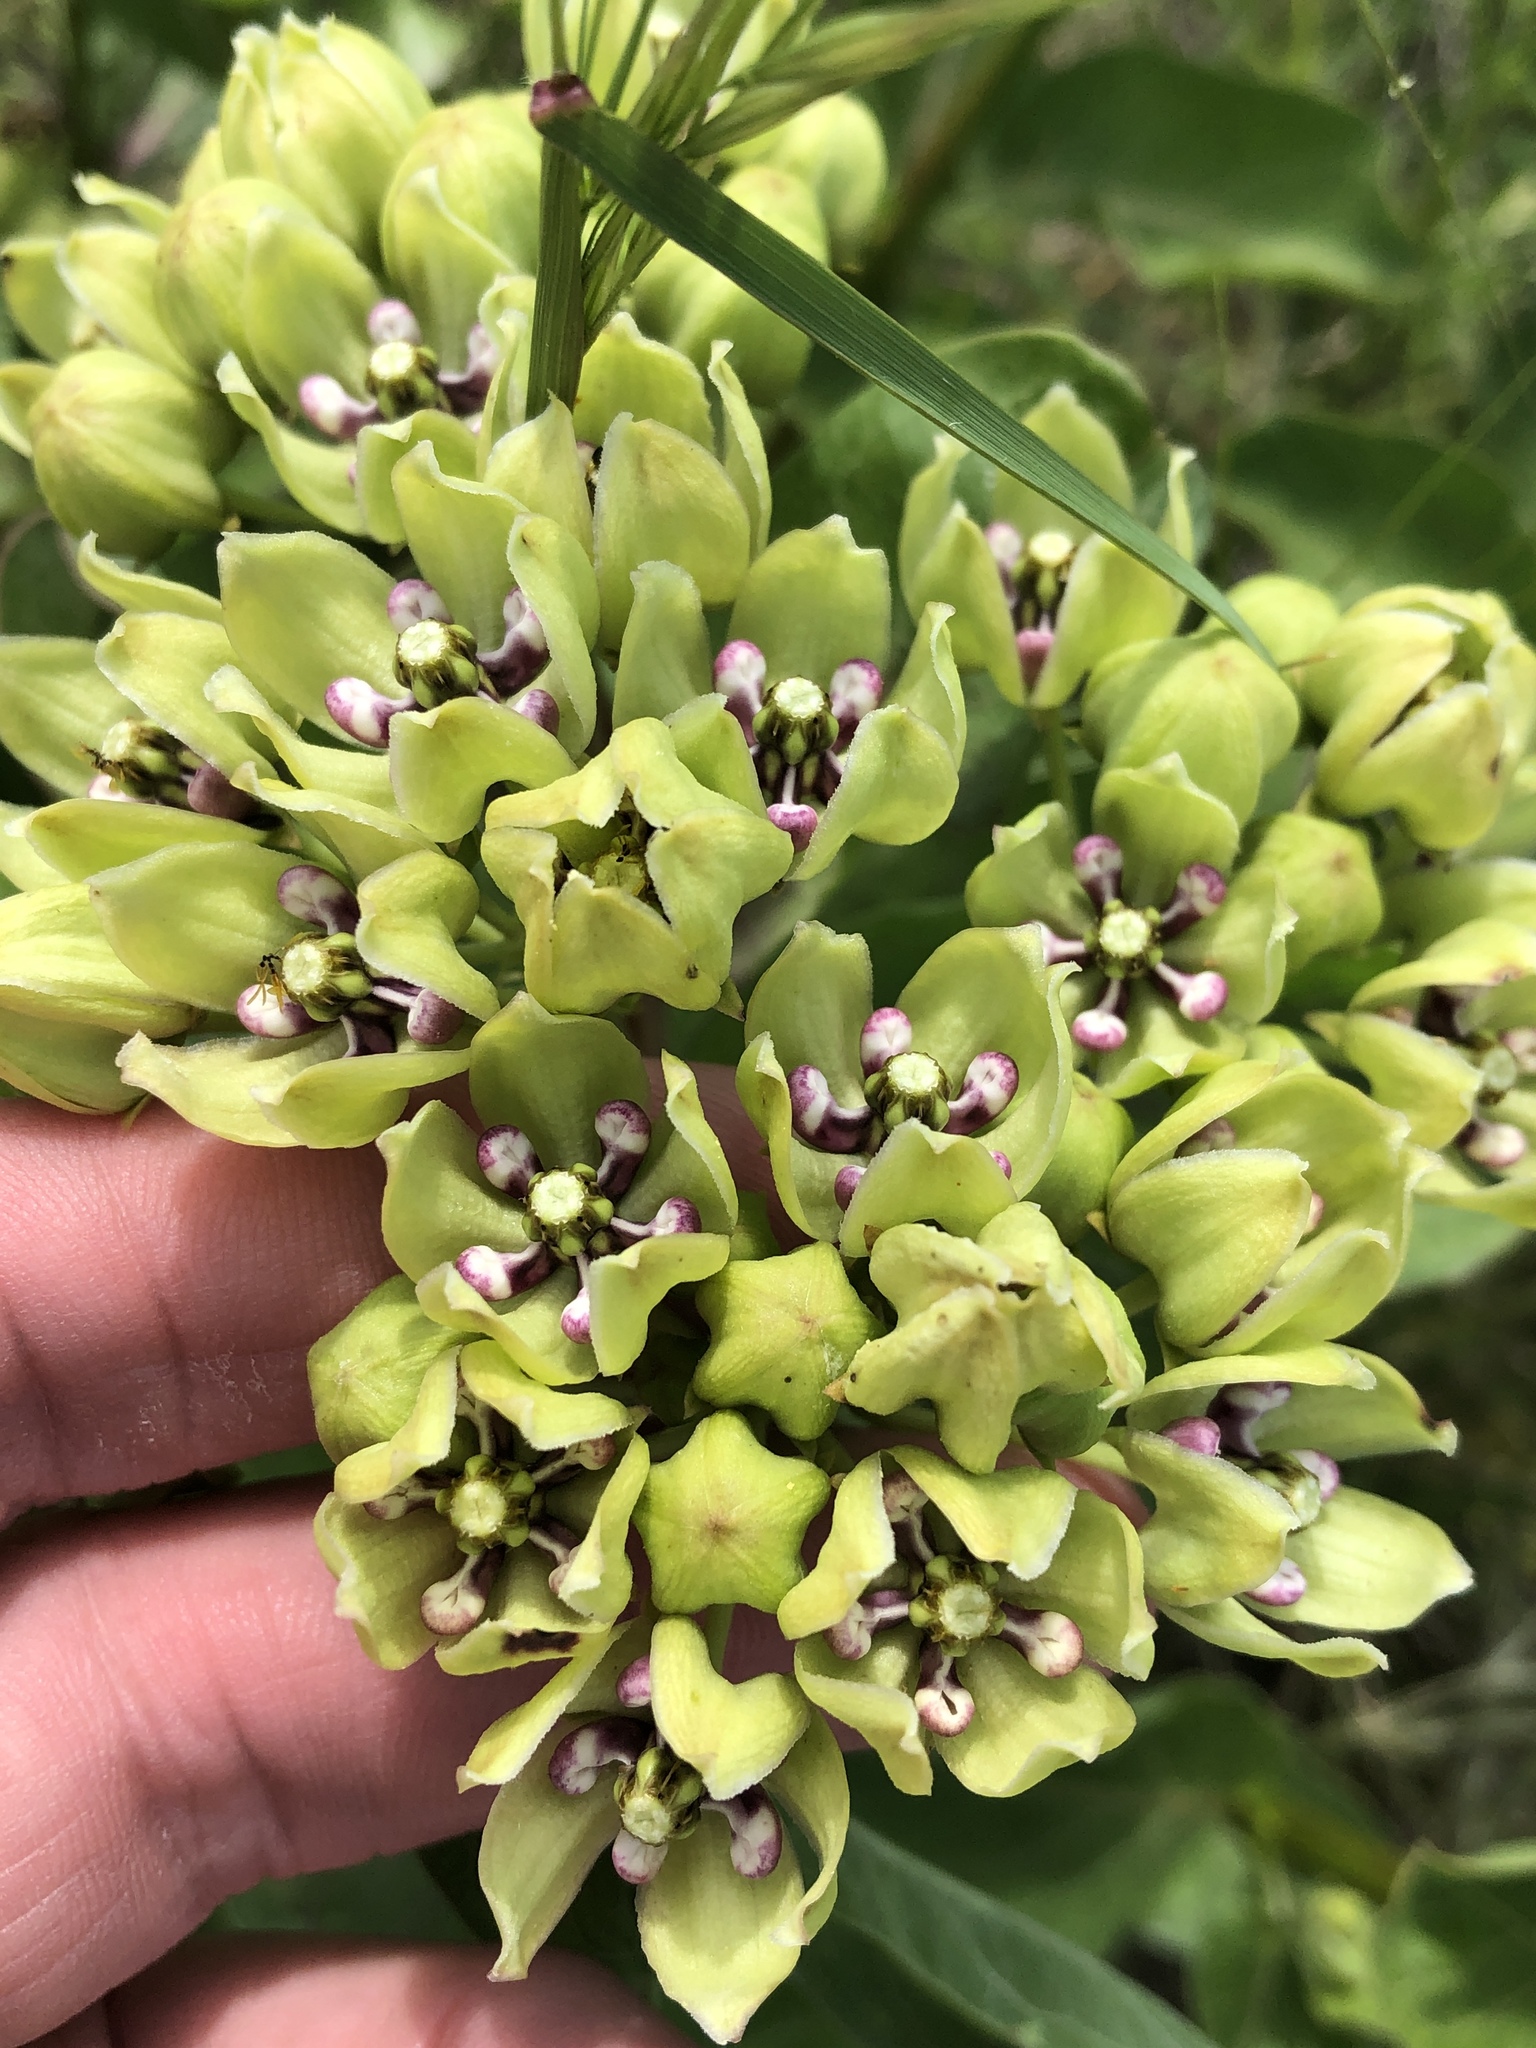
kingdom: Plantae
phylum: Tracheophyta
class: Magnoliopsida
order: Gentianales
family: Apocynaceae
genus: Asclepias
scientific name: Asclepias viridis
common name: Antelope-horns
